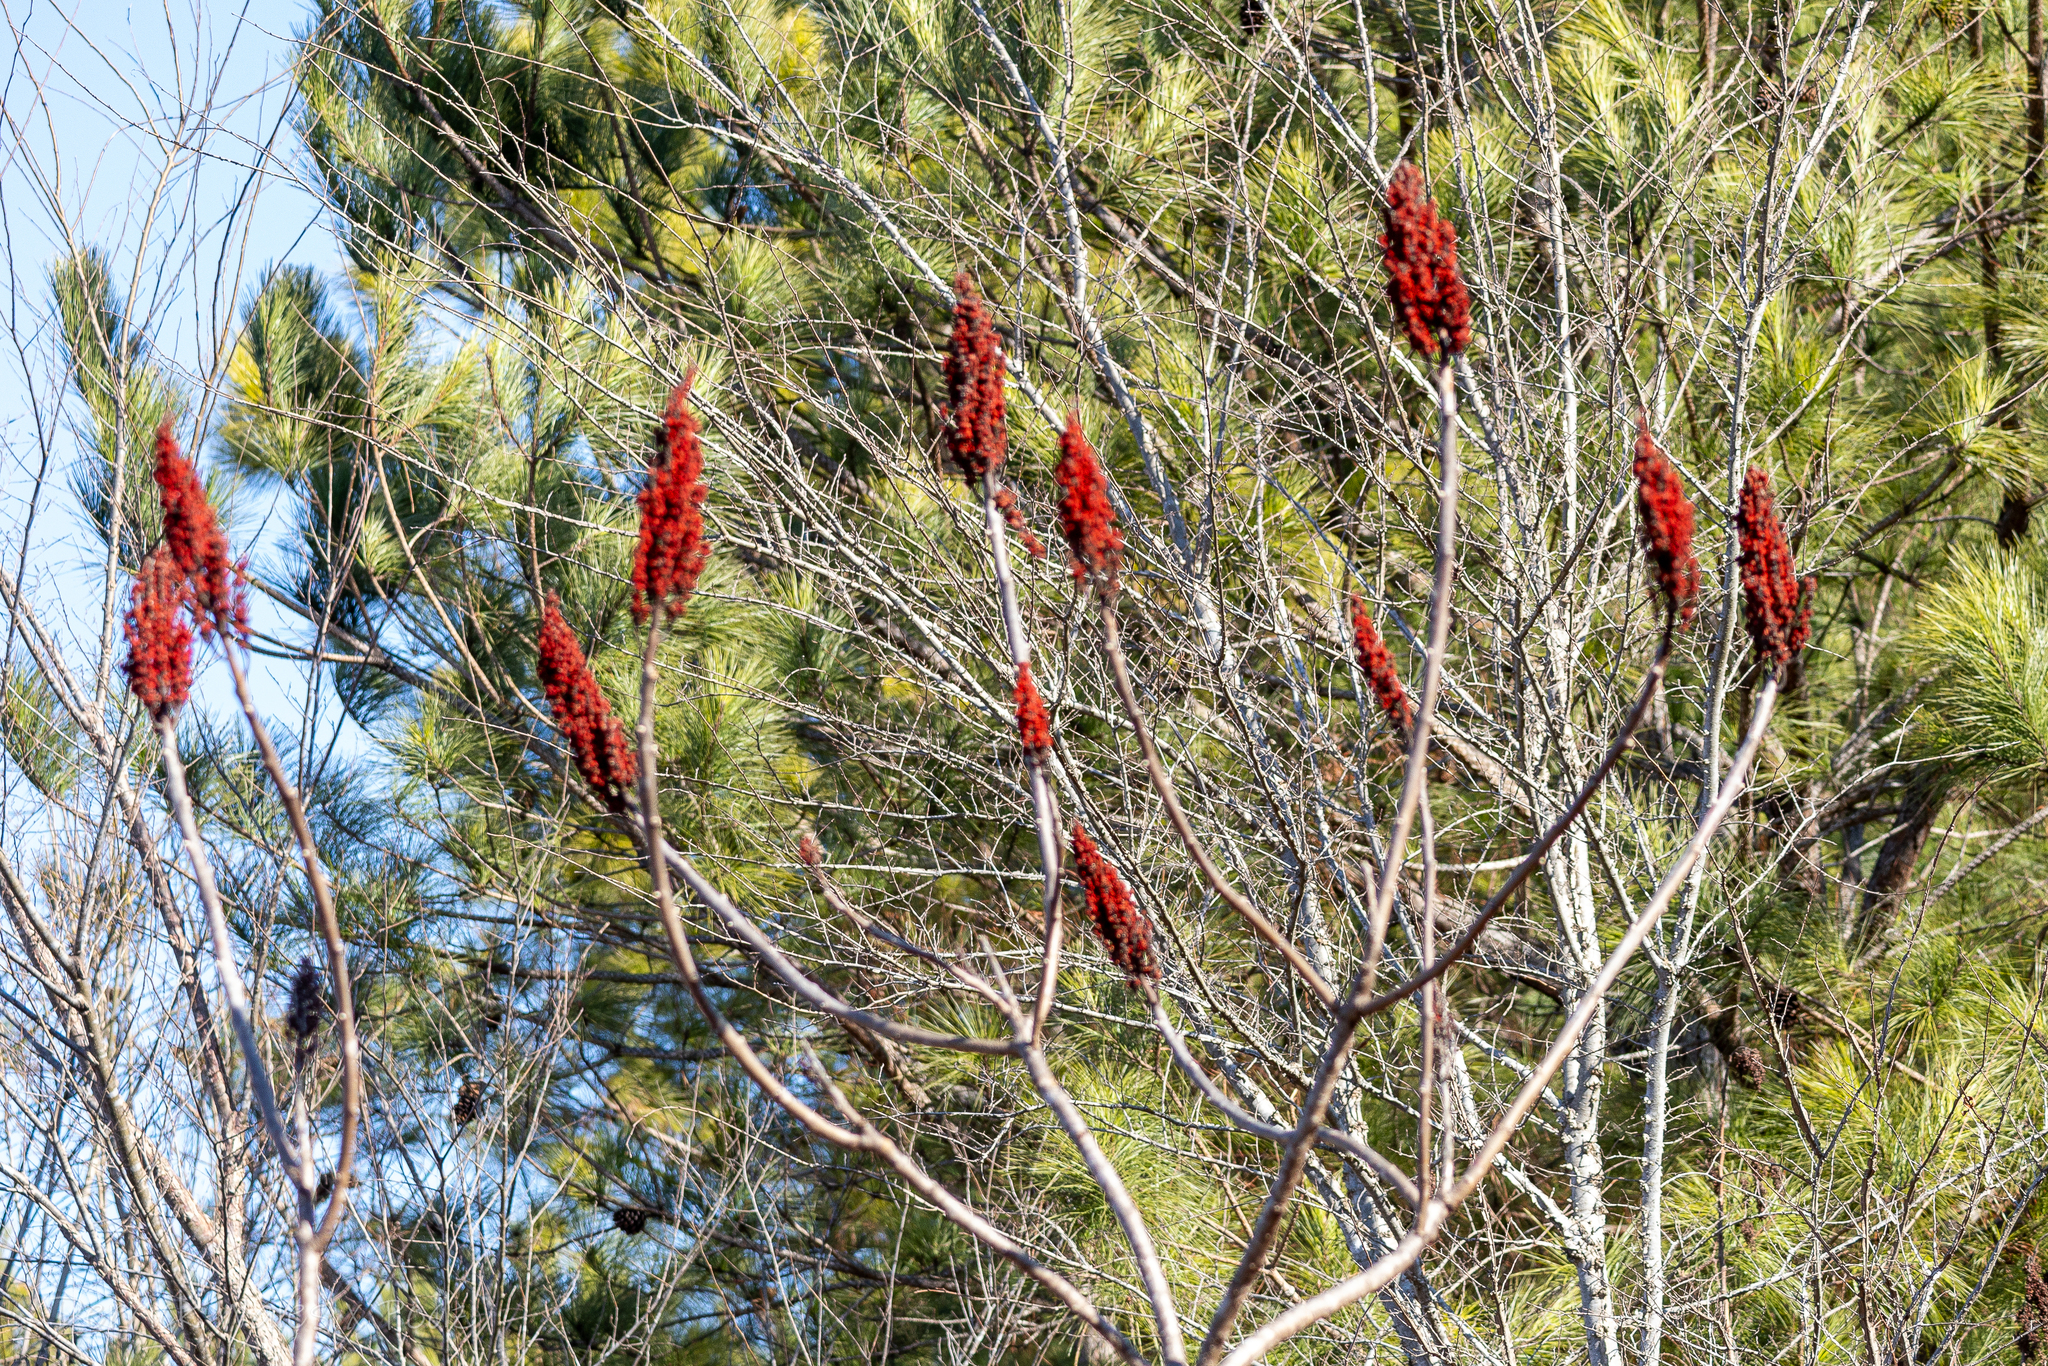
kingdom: Plantae
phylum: Tracheophyta
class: Magnoliopsida
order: Sapindales
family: Anacardiaceae
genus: Rhus
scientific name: Rhus glabra
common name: Scarlet sumac
